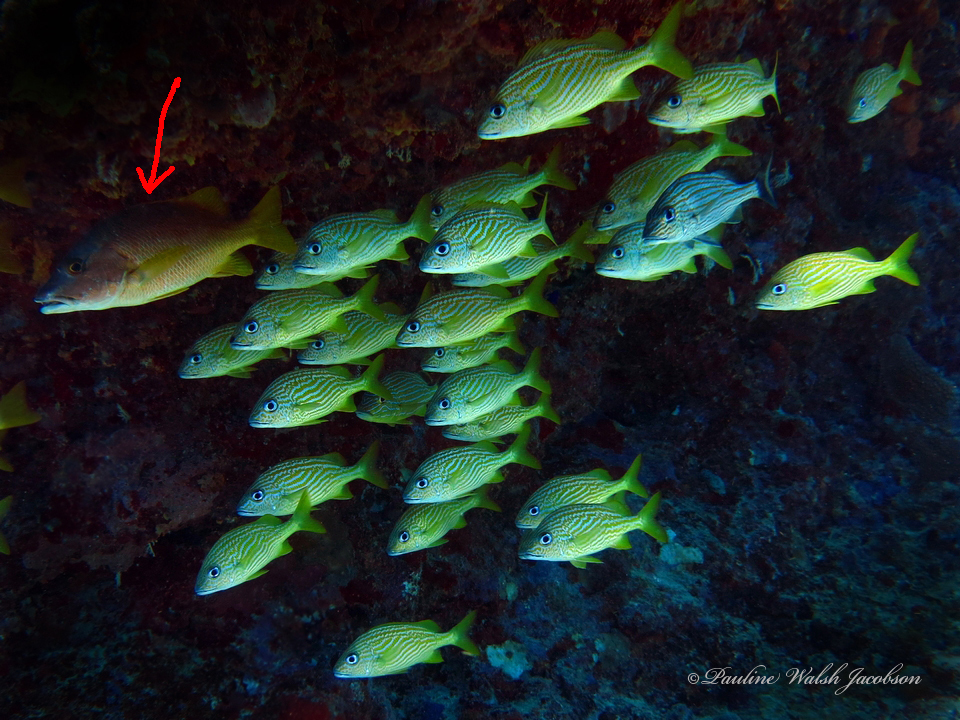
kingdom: Animalia
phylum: Chordata
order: Perciformes
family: Lutjanidae
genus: Lutjanus
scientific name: Lutjanus apodus
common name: Schoolmaster
